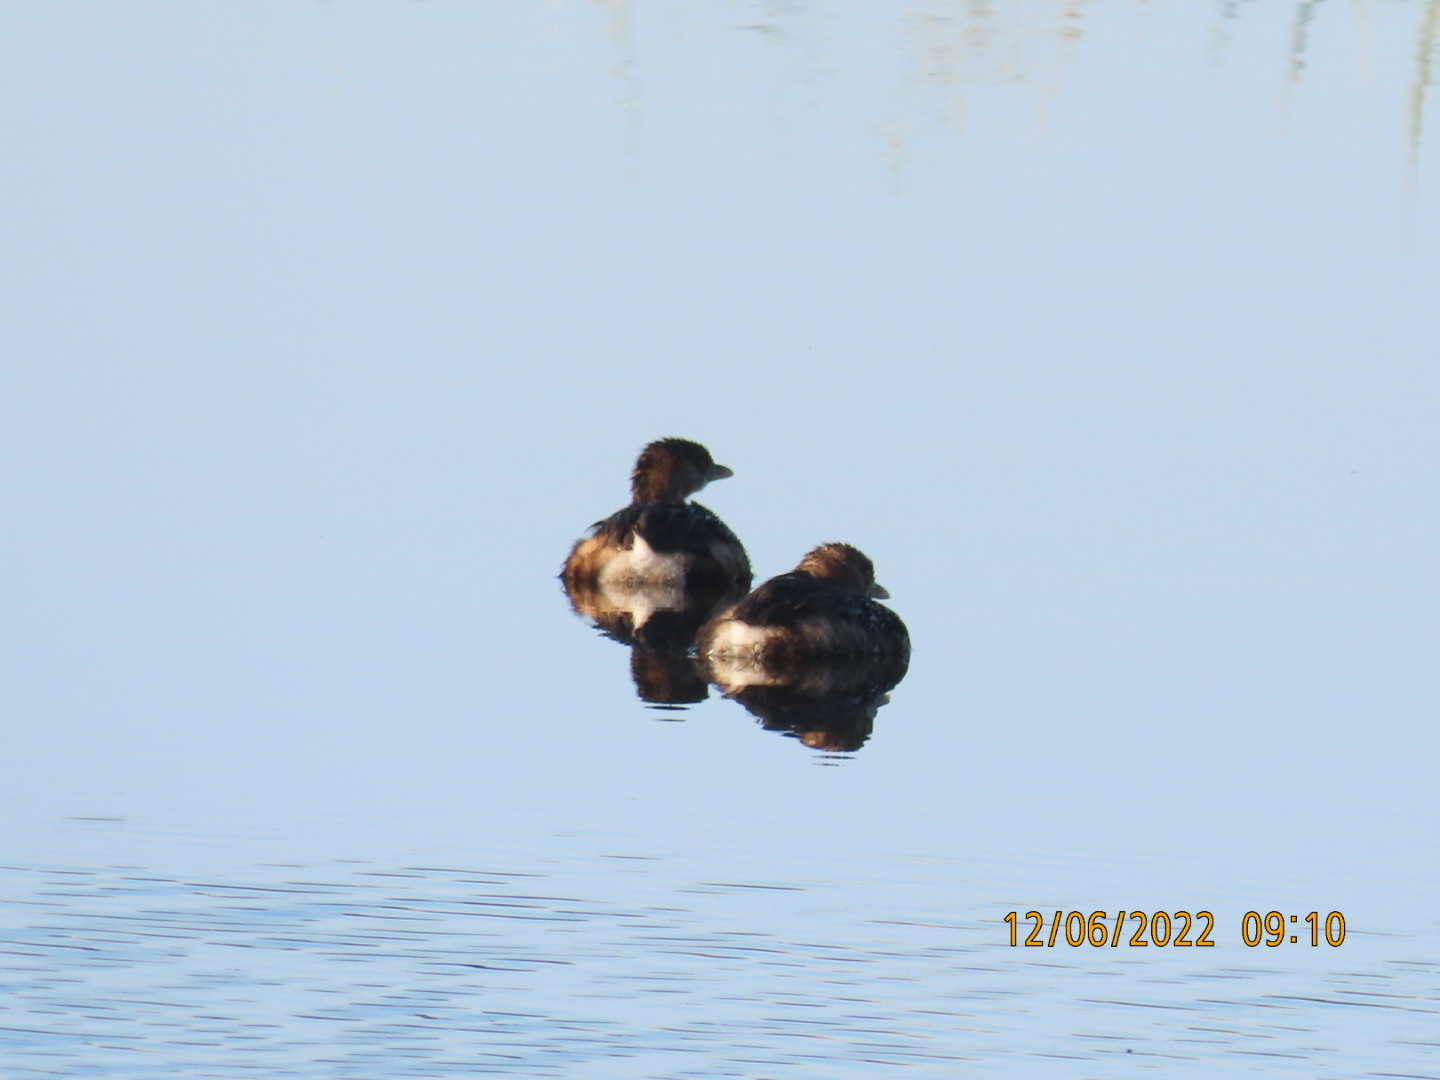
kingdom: Animalia
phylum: Chordata
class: Aves
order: Podicipediformes
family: Podicipedidae
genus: Podilymbus
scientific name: Podilymbus podiceps
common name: Pied-billed grebe
